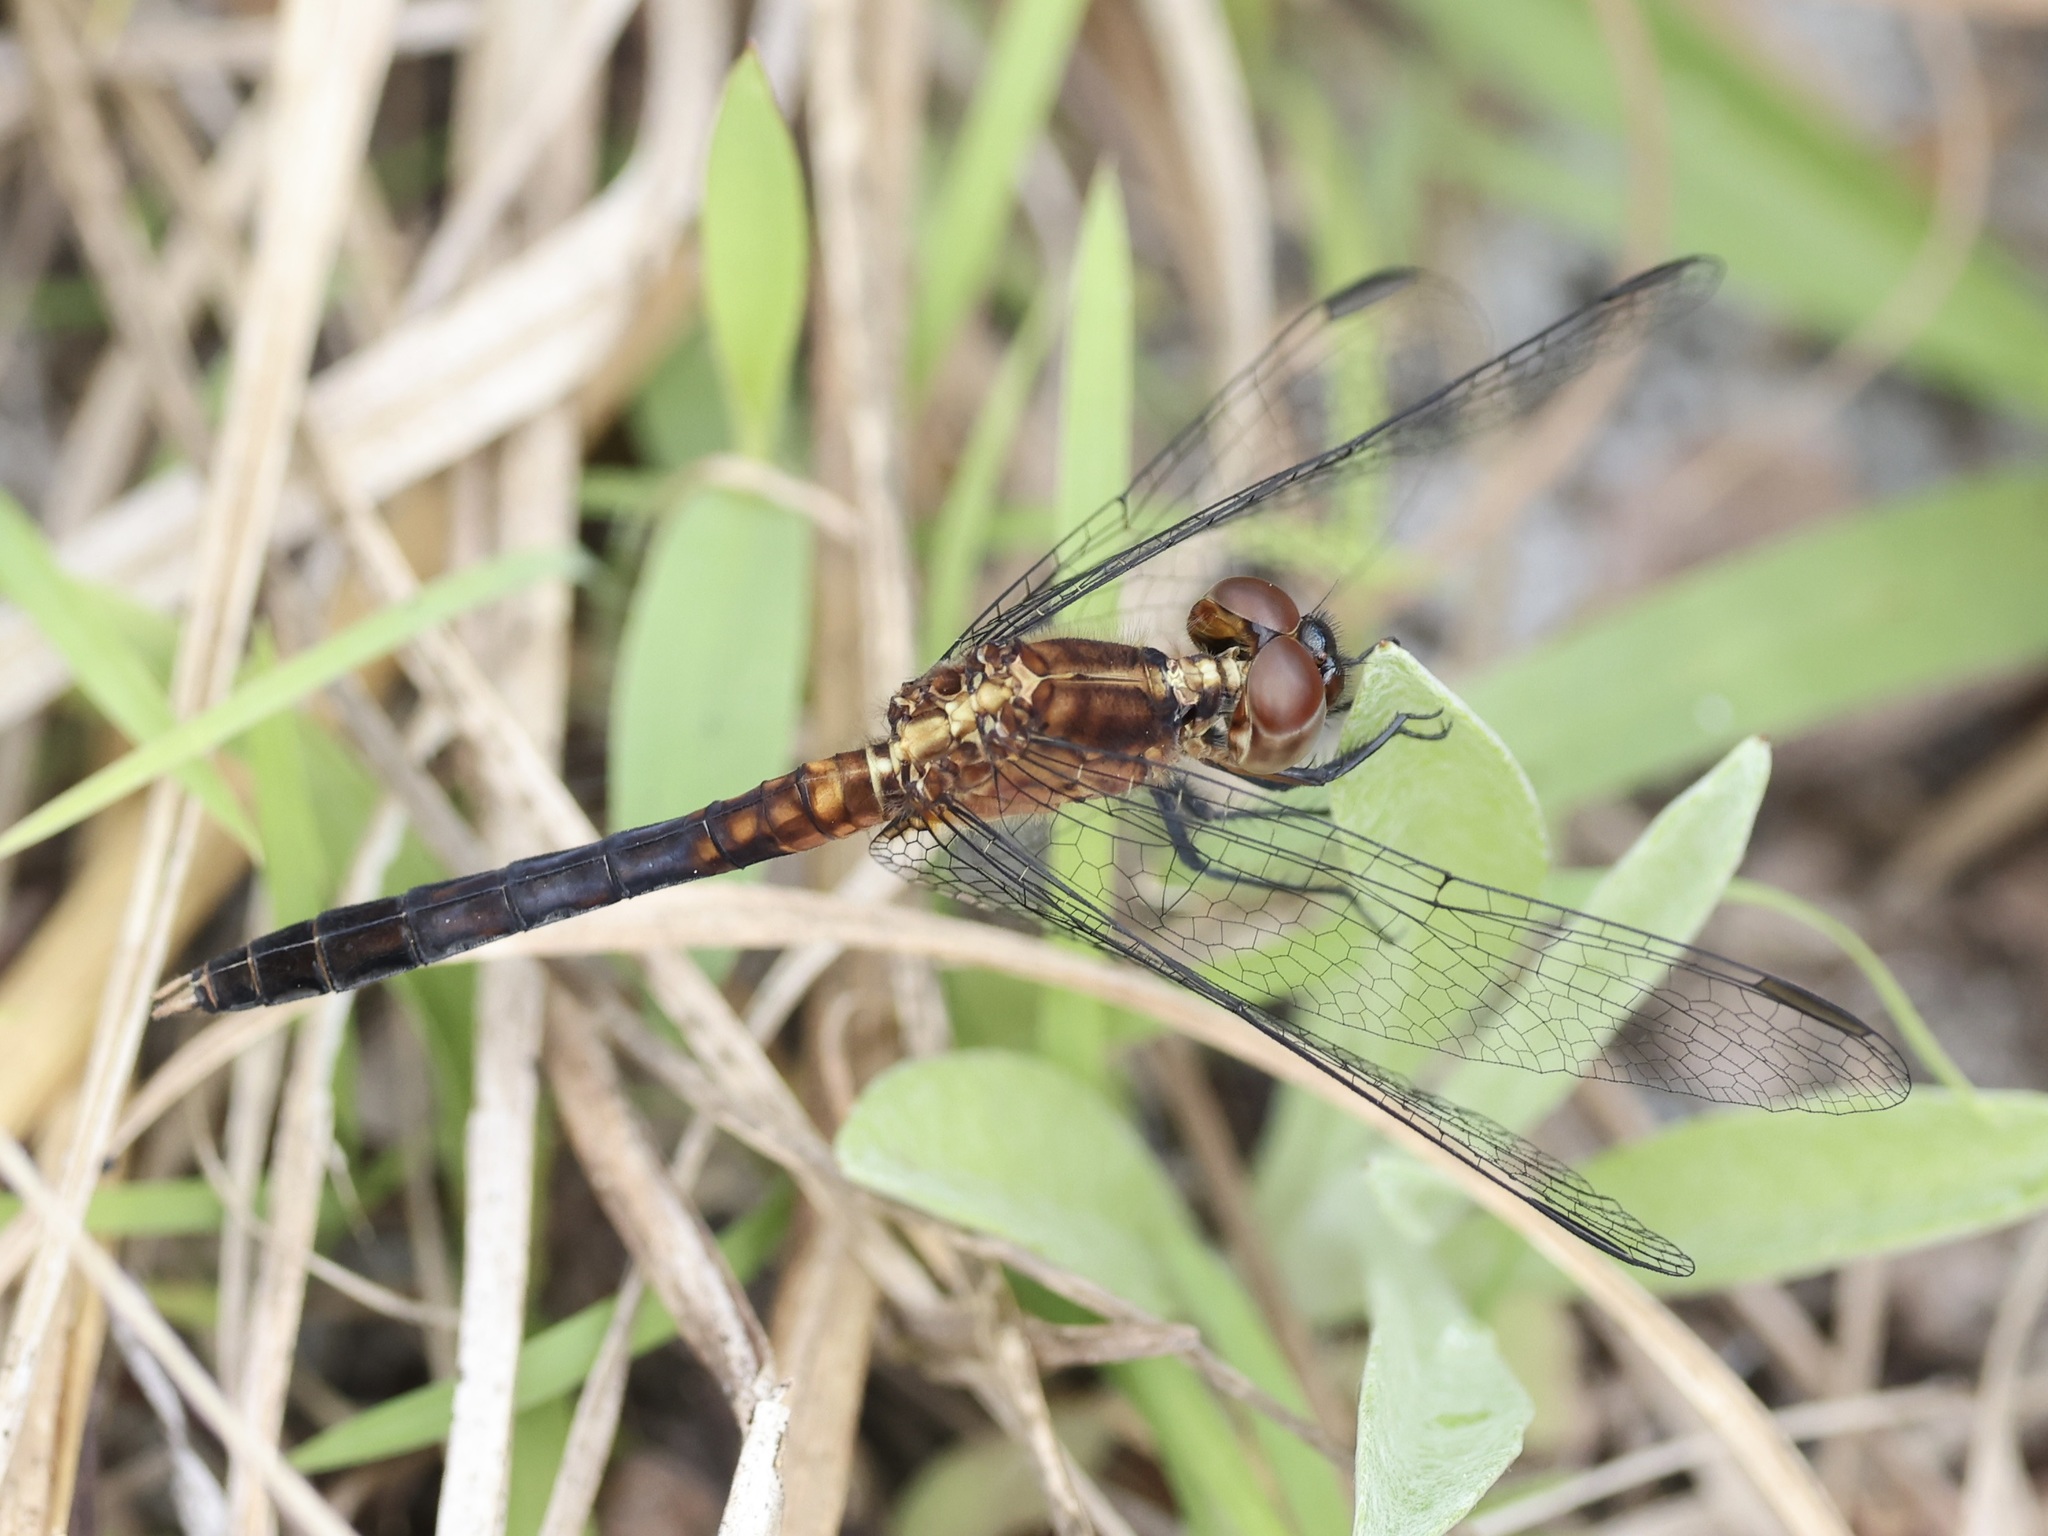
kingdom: Animalia
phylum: Arthropoda
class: Insecta
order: Odonata
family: Libellulidae
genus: Erythrodiplax
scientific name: Erythrodiplax minuscula
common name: Little blue dragonlet
